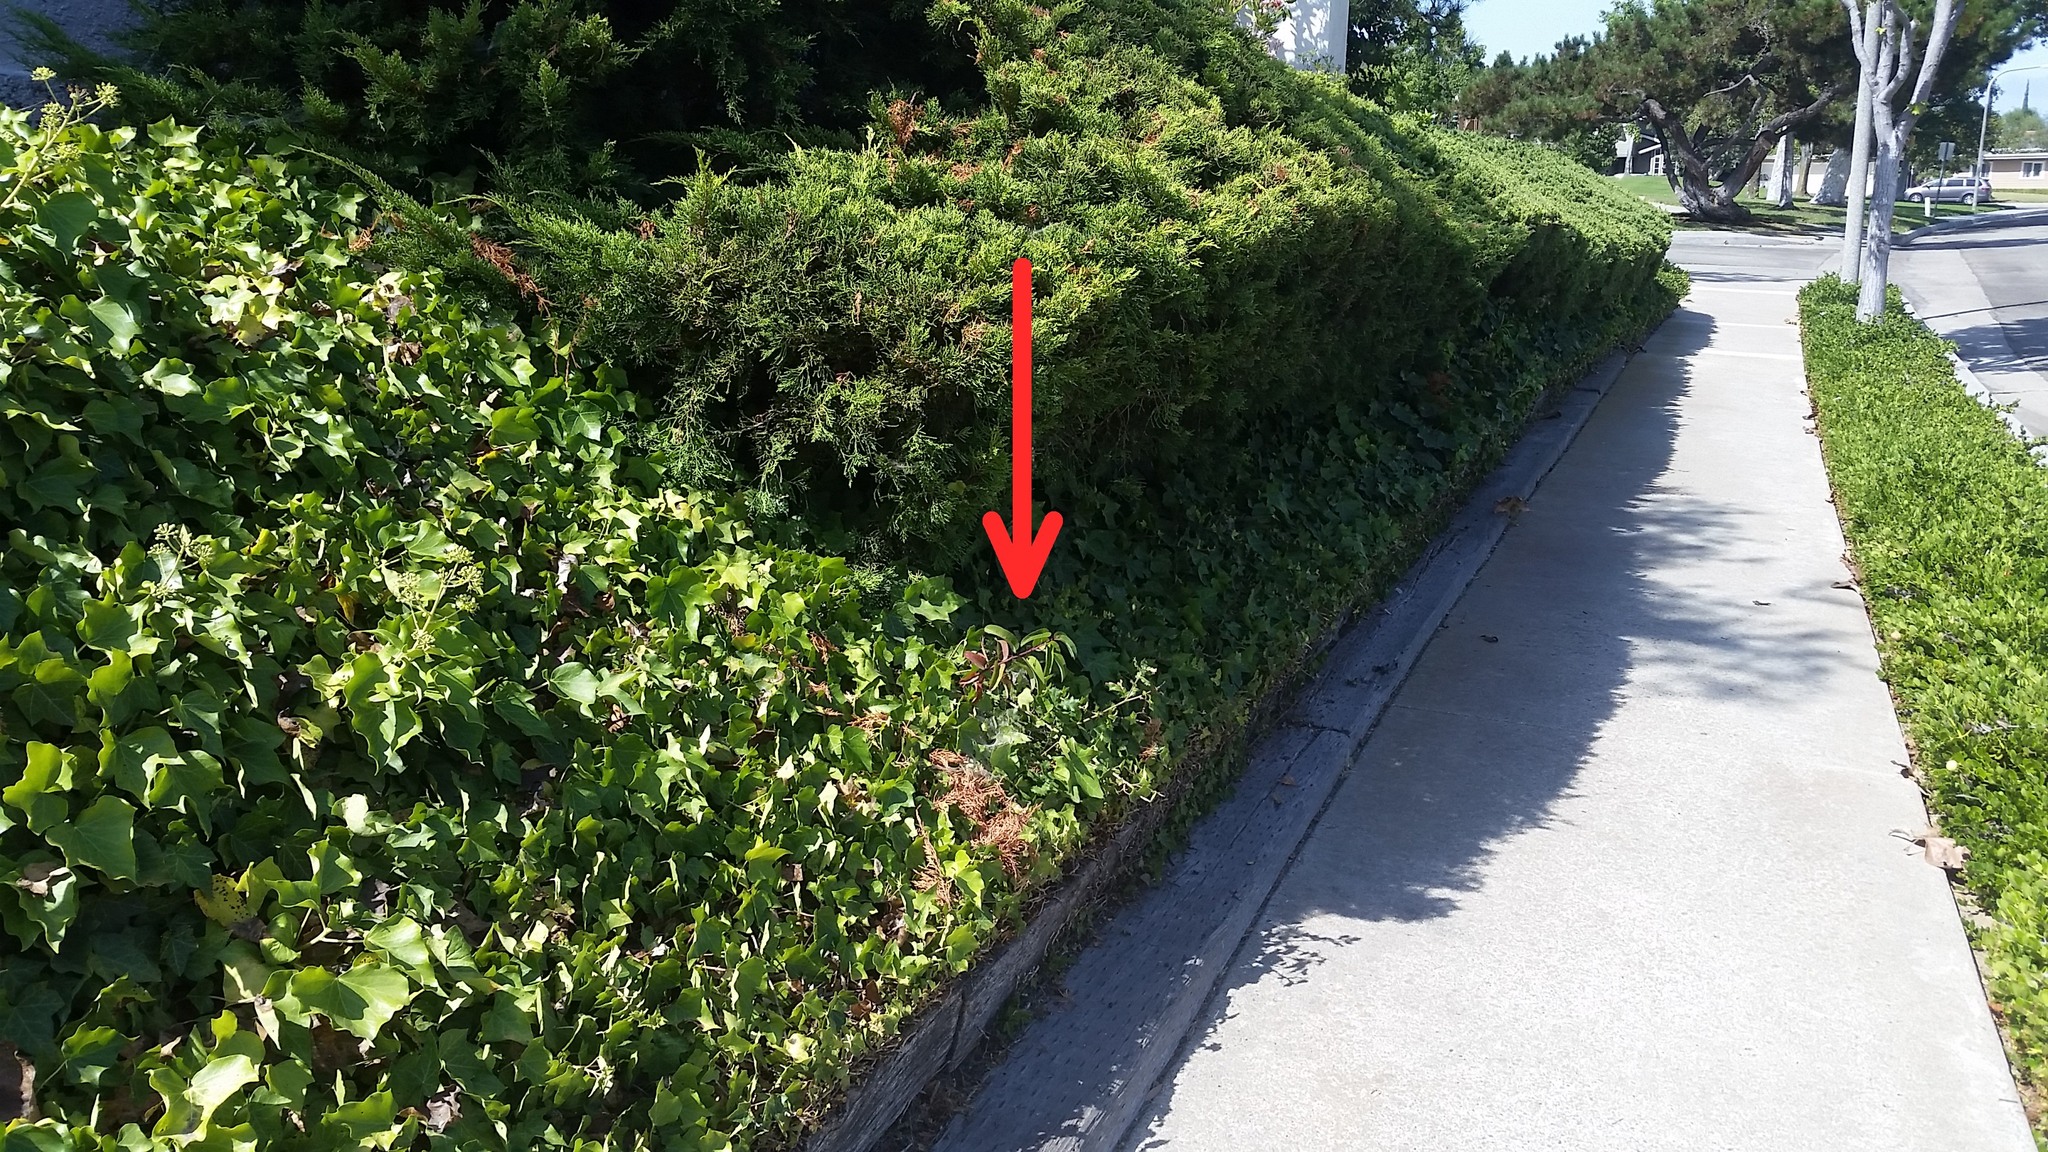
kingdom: Plantae
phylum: Tracheophyta
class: Magnoliopsida
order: Sapindales
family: Anacardiaceae
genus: Malosma
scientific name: Malosma laurina
